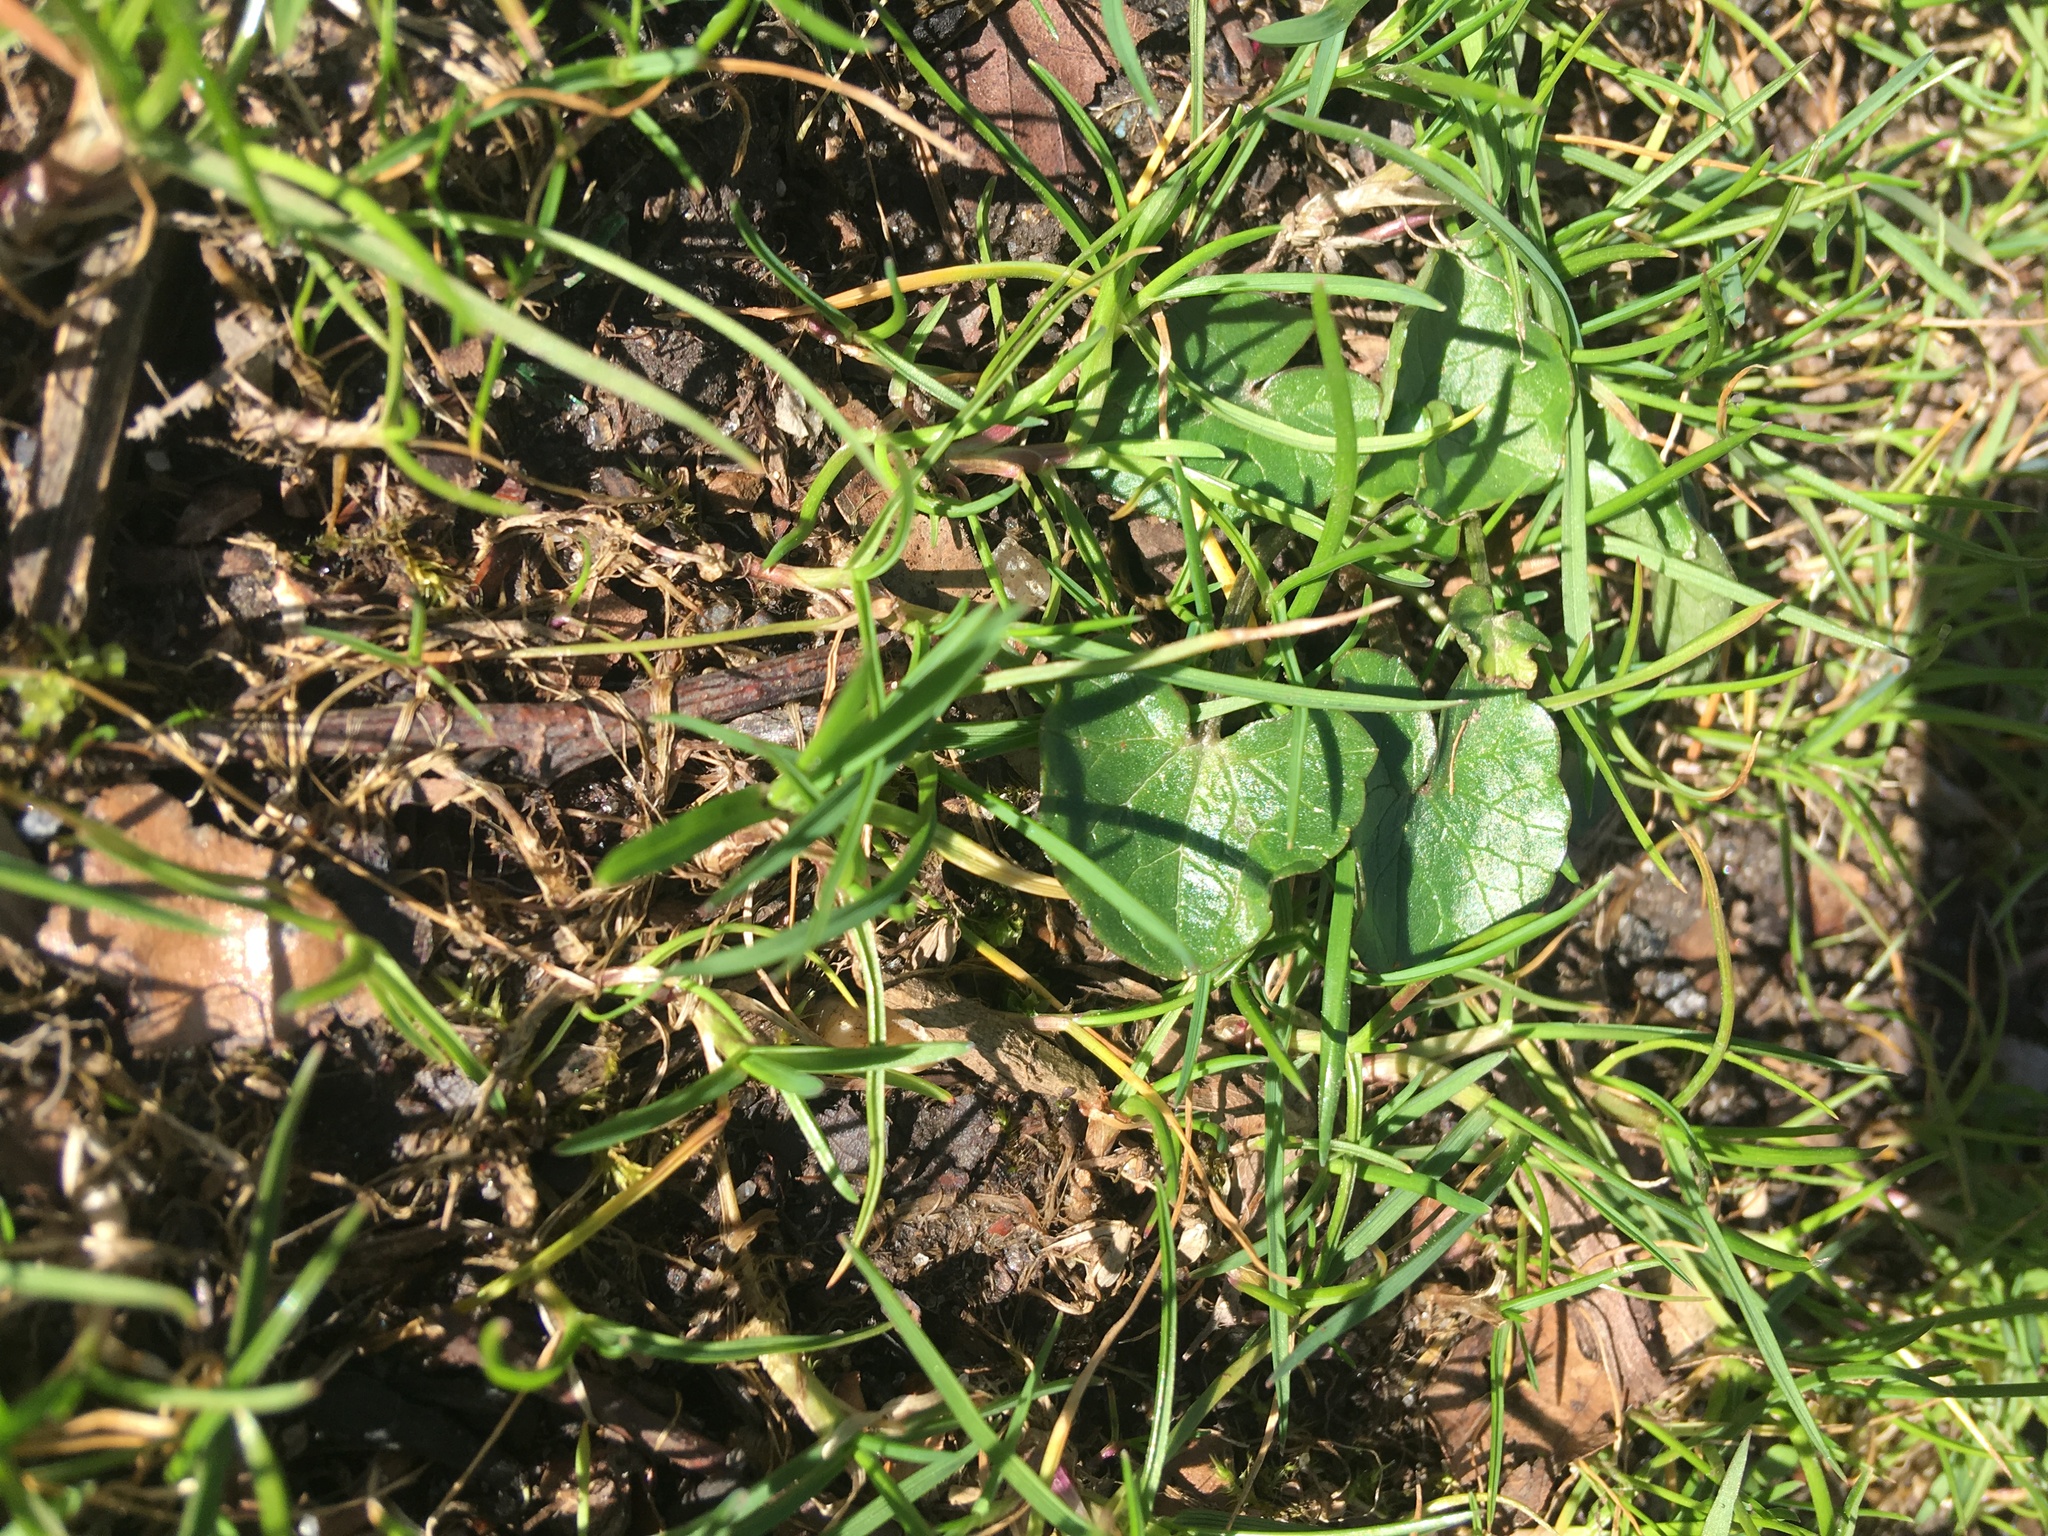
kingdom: Plantae
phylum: Tracheophyta
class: Magnoliopsida
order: Ranunculales
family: Ranunculaceae
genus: Ficaria
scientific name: Ficaria verna
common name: Lesser celandine
